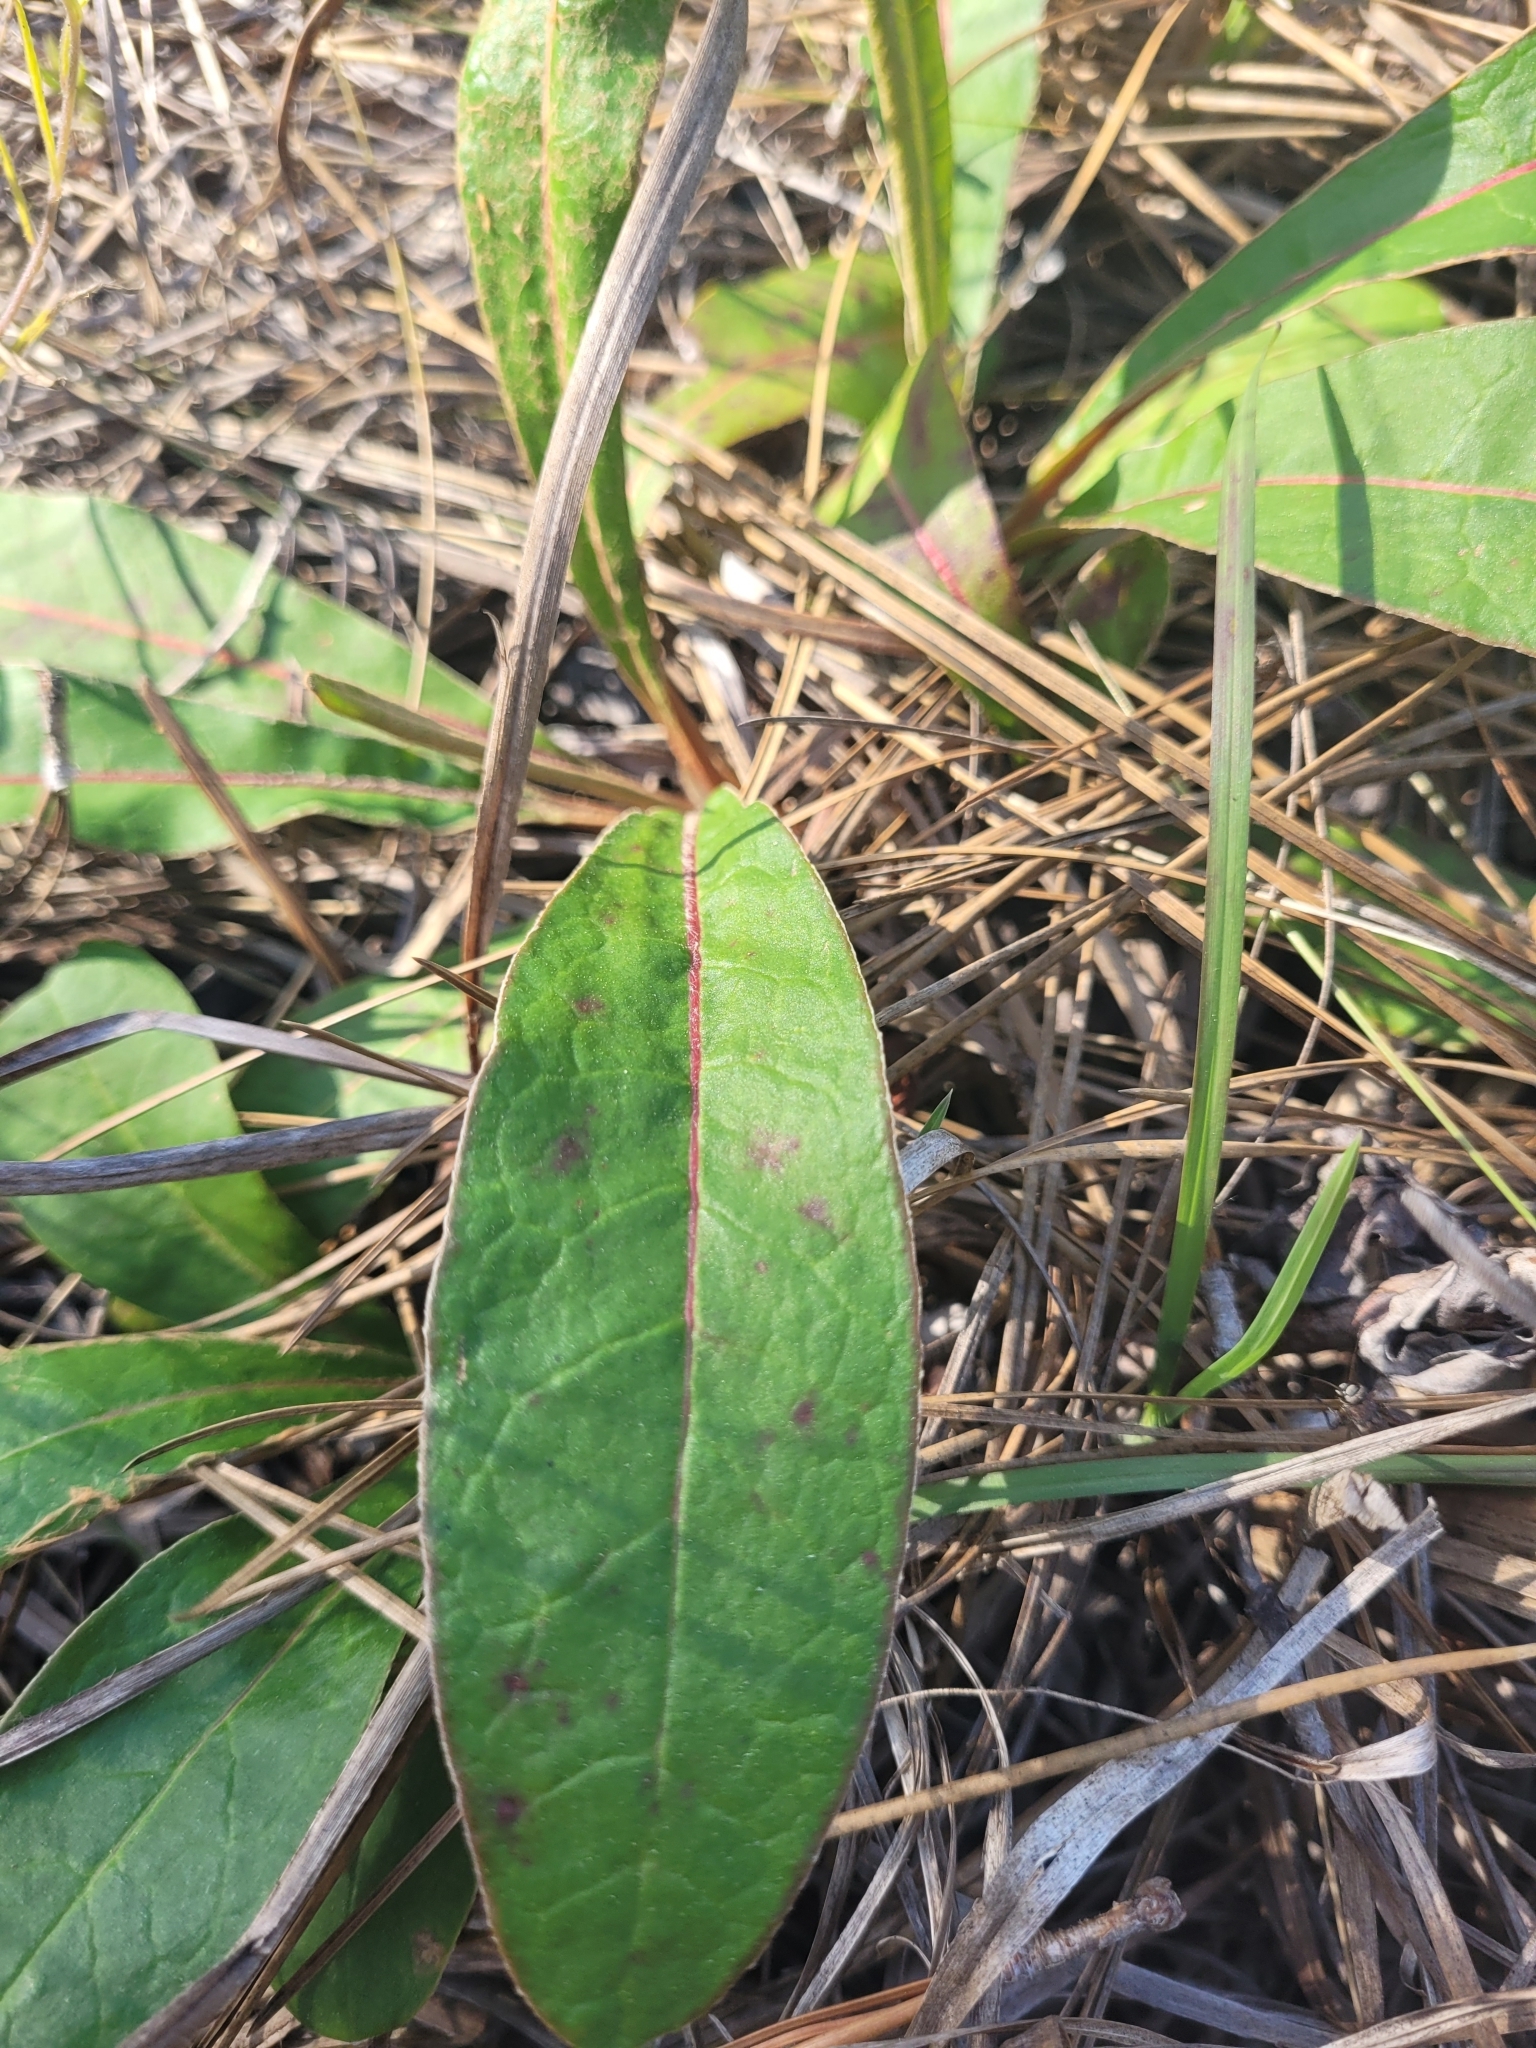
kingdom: Plantae
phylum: Tracheophyta
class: Magnoliopsida
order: Caryophyllales
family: Polygonaceae
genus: Eriogonum
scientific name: Eriogonum tomentosum
